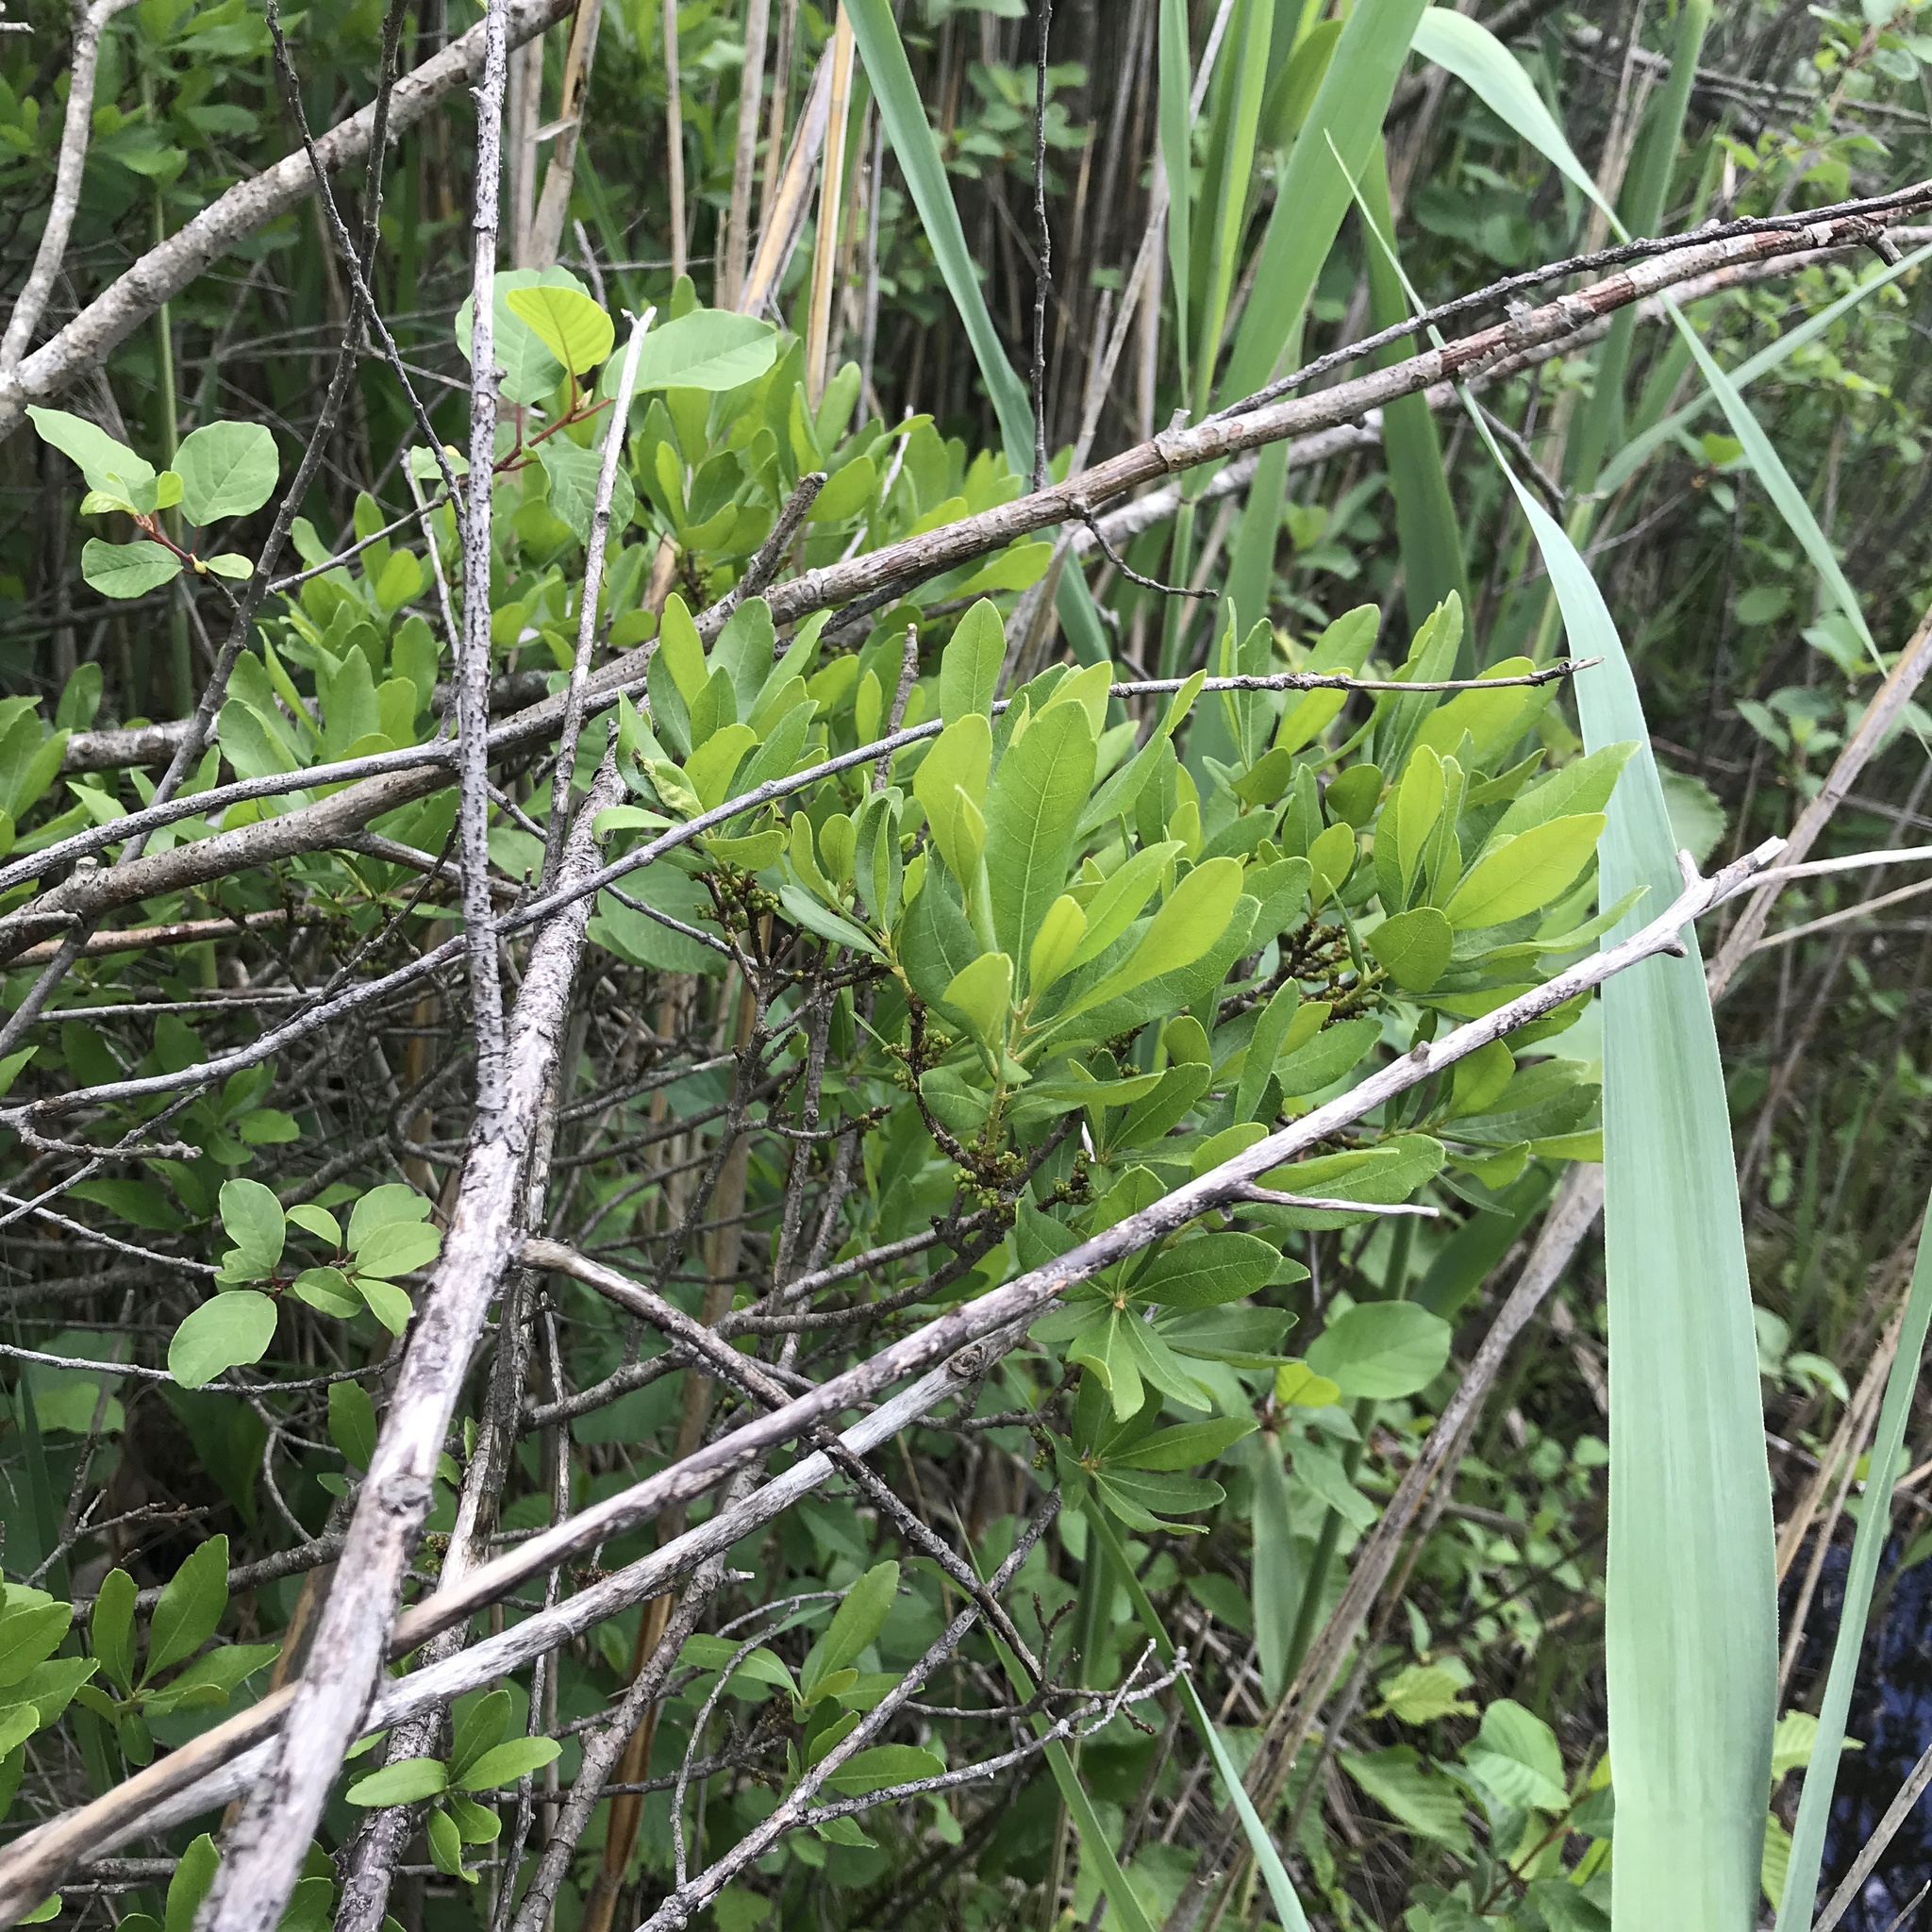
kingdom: Plantae
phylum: Tracheophyta
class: Magnoliopsida
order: Fagales
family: Myricaceae
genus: Morella
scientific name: Morella pensylvanica
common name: Northern bayberry
